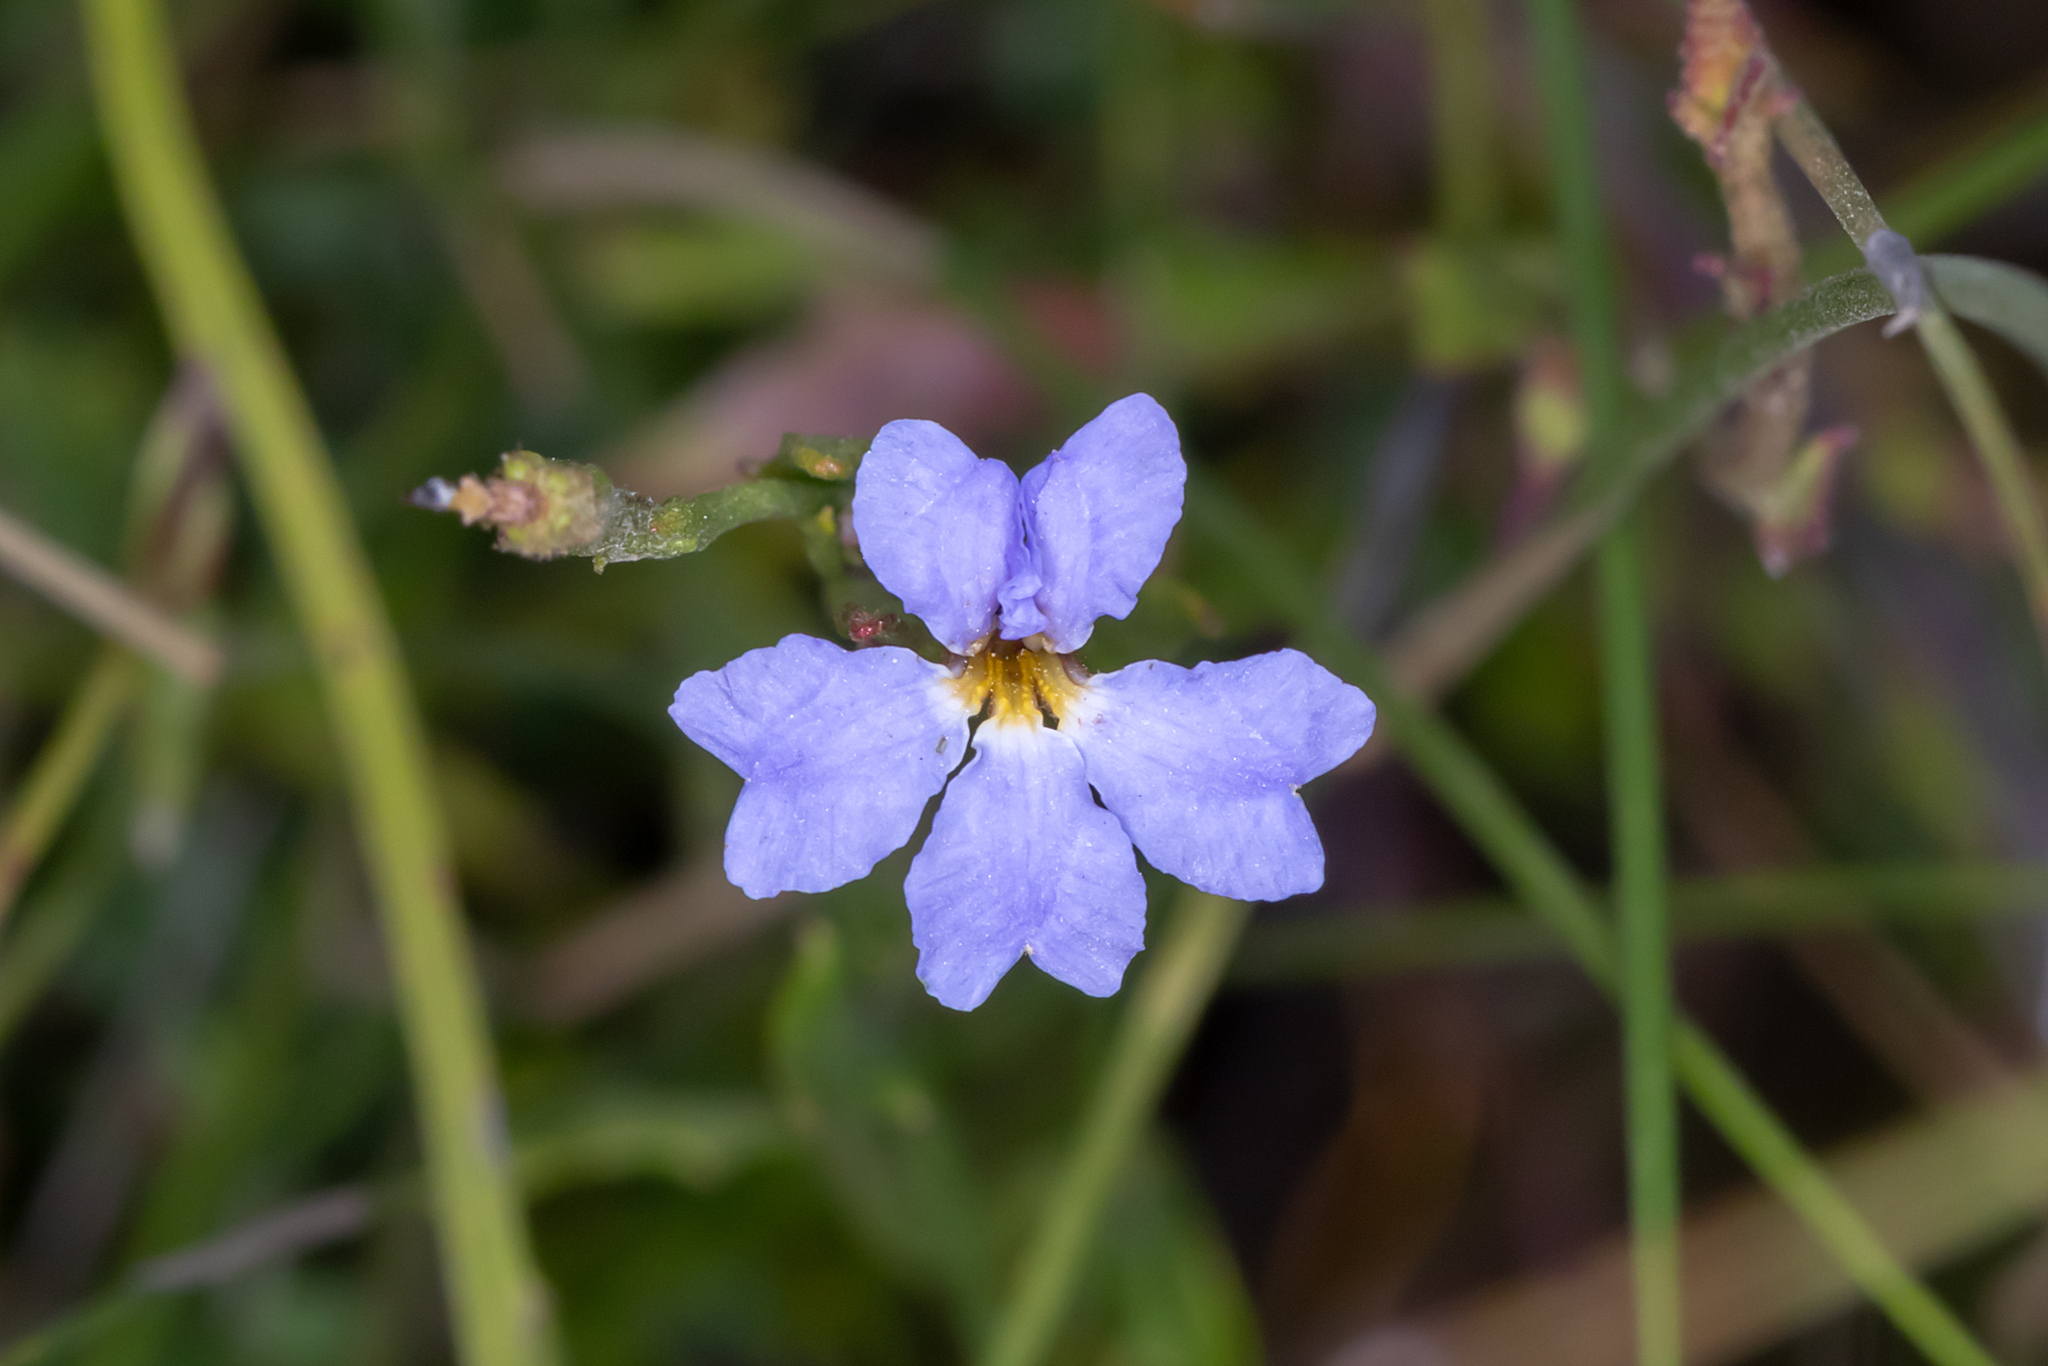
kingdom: Plantae
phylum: Tracheophyta
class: Magnoliopsida
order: Asterales
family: Goodeniaceae
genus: Dampiera
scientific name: Dampiera stricta
